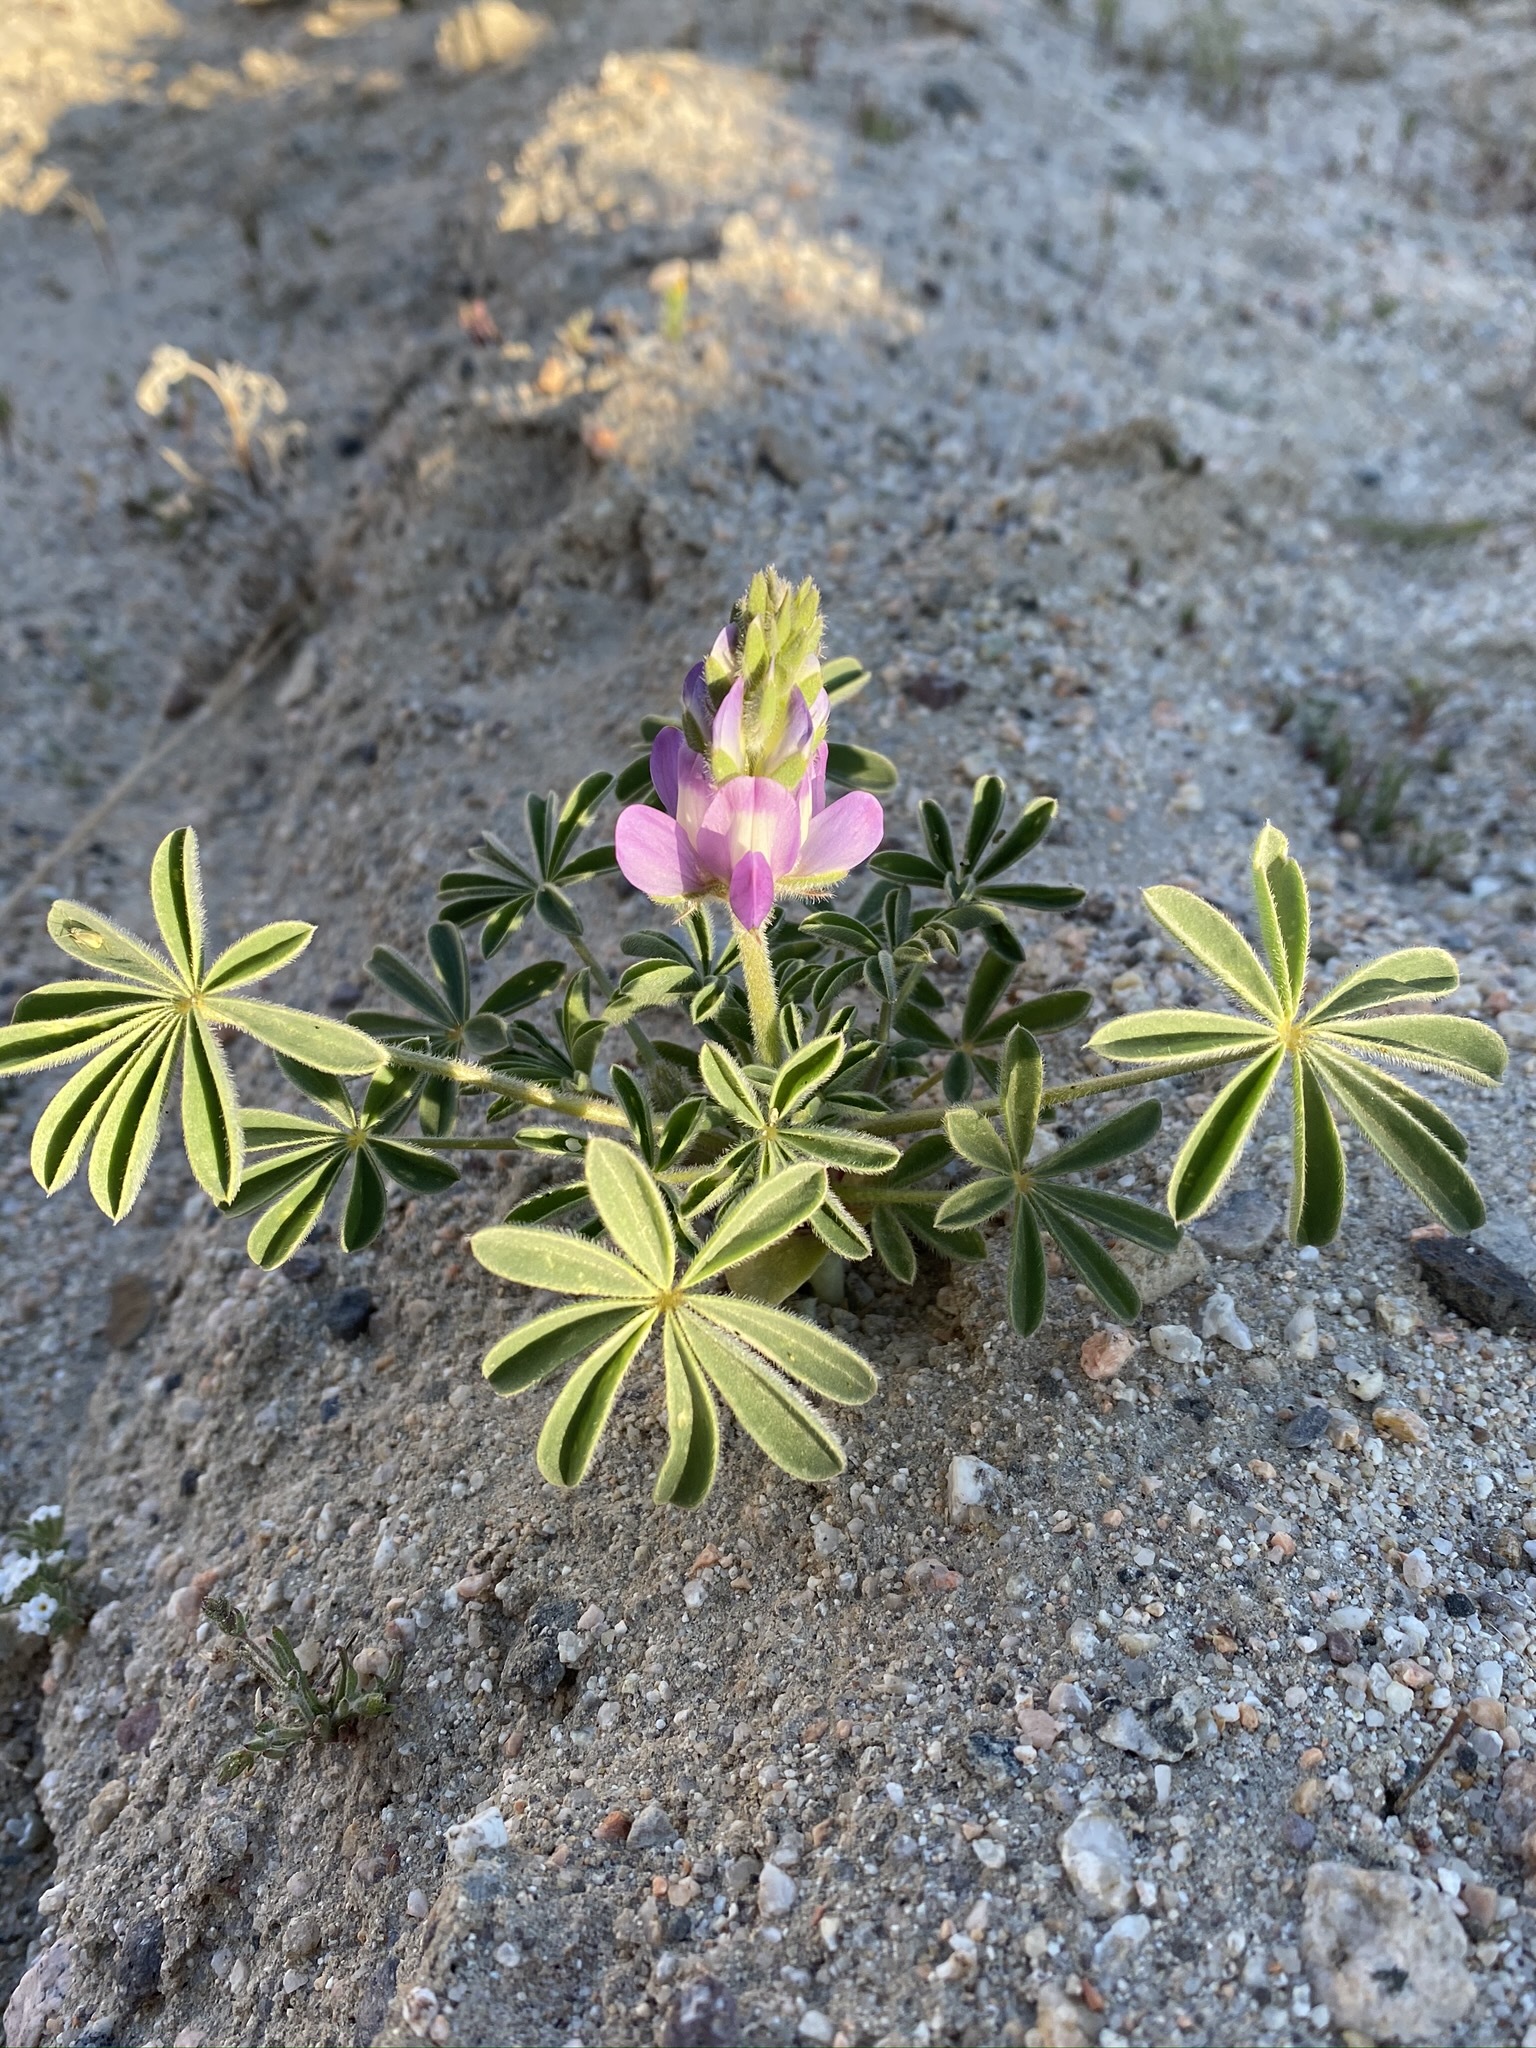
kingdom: Plantae
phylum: Tracheophyta
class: Magnoliopsida
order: Fabales
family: Fabaceae
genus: Lupinus
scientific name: Lupinus microcarpus
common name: Chick lupine
